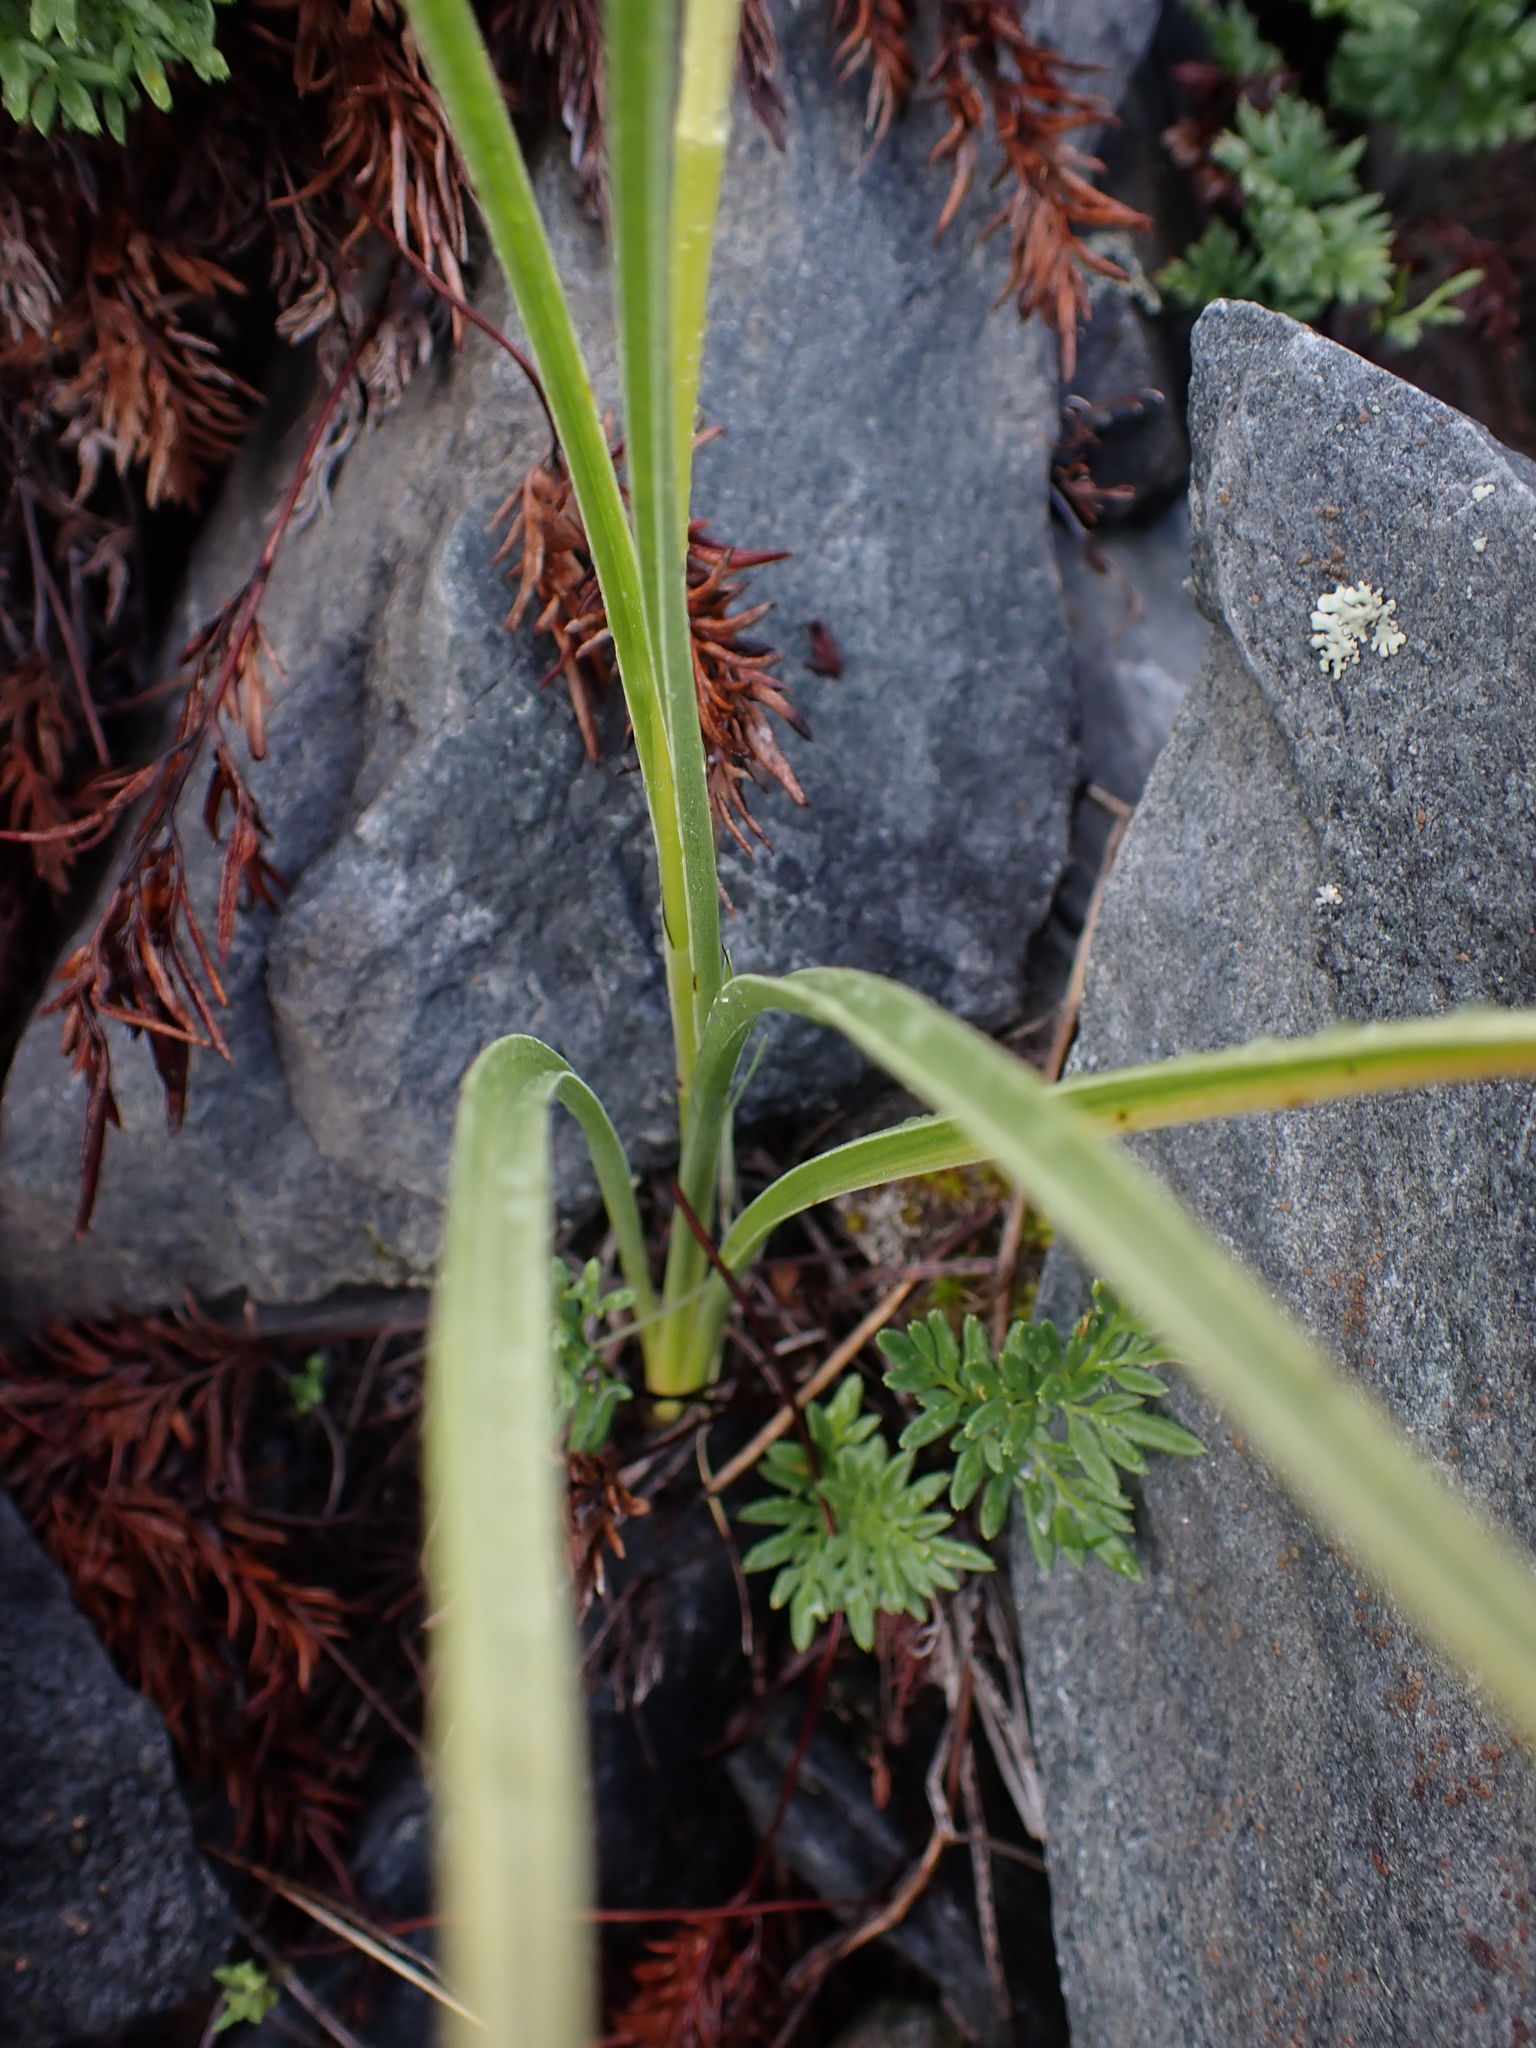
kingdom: Plantae
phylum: Tracheophyta
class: Liliopsida
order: Liliales
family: Melanthiaceae
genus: Toxicoscordion
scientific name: Toxicoscordion venenosum
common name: Meadow death camas
